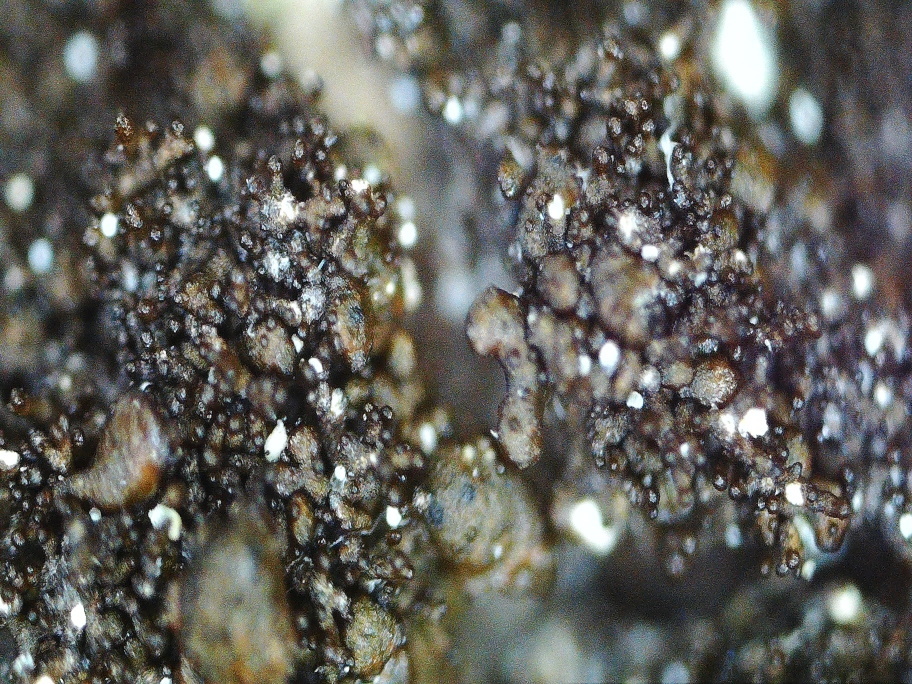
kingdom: Fungi
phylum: Ascomycota
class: Lecanoromycetes
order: Lecanorales
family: Parmeliaceae
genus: Melanelixia
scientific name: Melanelixia fuliginosa
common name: Shiny camouflage lichen
